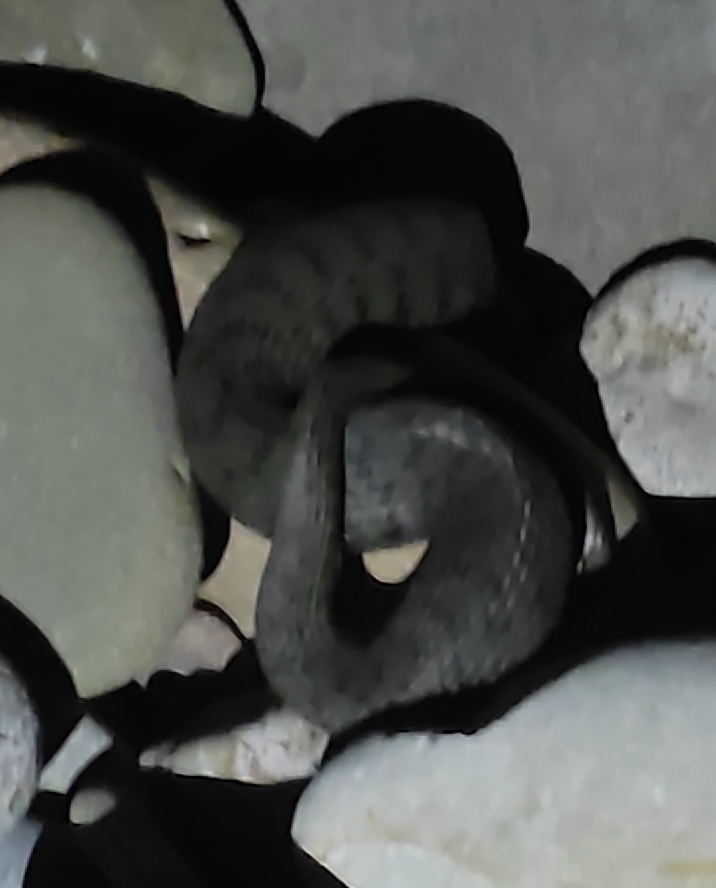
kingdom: Animalia
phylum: Chordata
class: Squamata
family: Colubridae
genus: Natrix
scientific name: Natrix tessellata
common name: Dice snake
